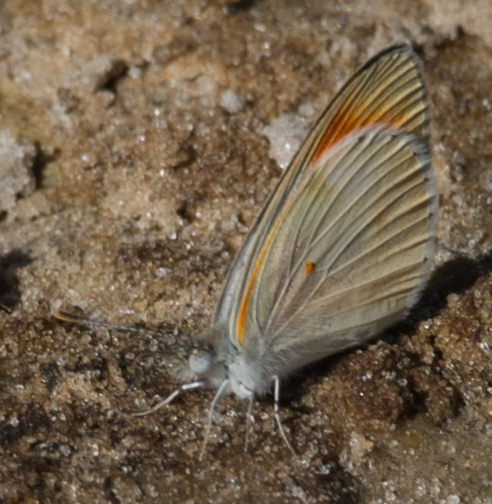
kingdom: Animalia
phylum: Arthropoda
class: Insecta
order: Lepidoptera
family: Pieridae
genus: Colotis
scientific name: Colotis evagore
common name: Desert orange-tip
